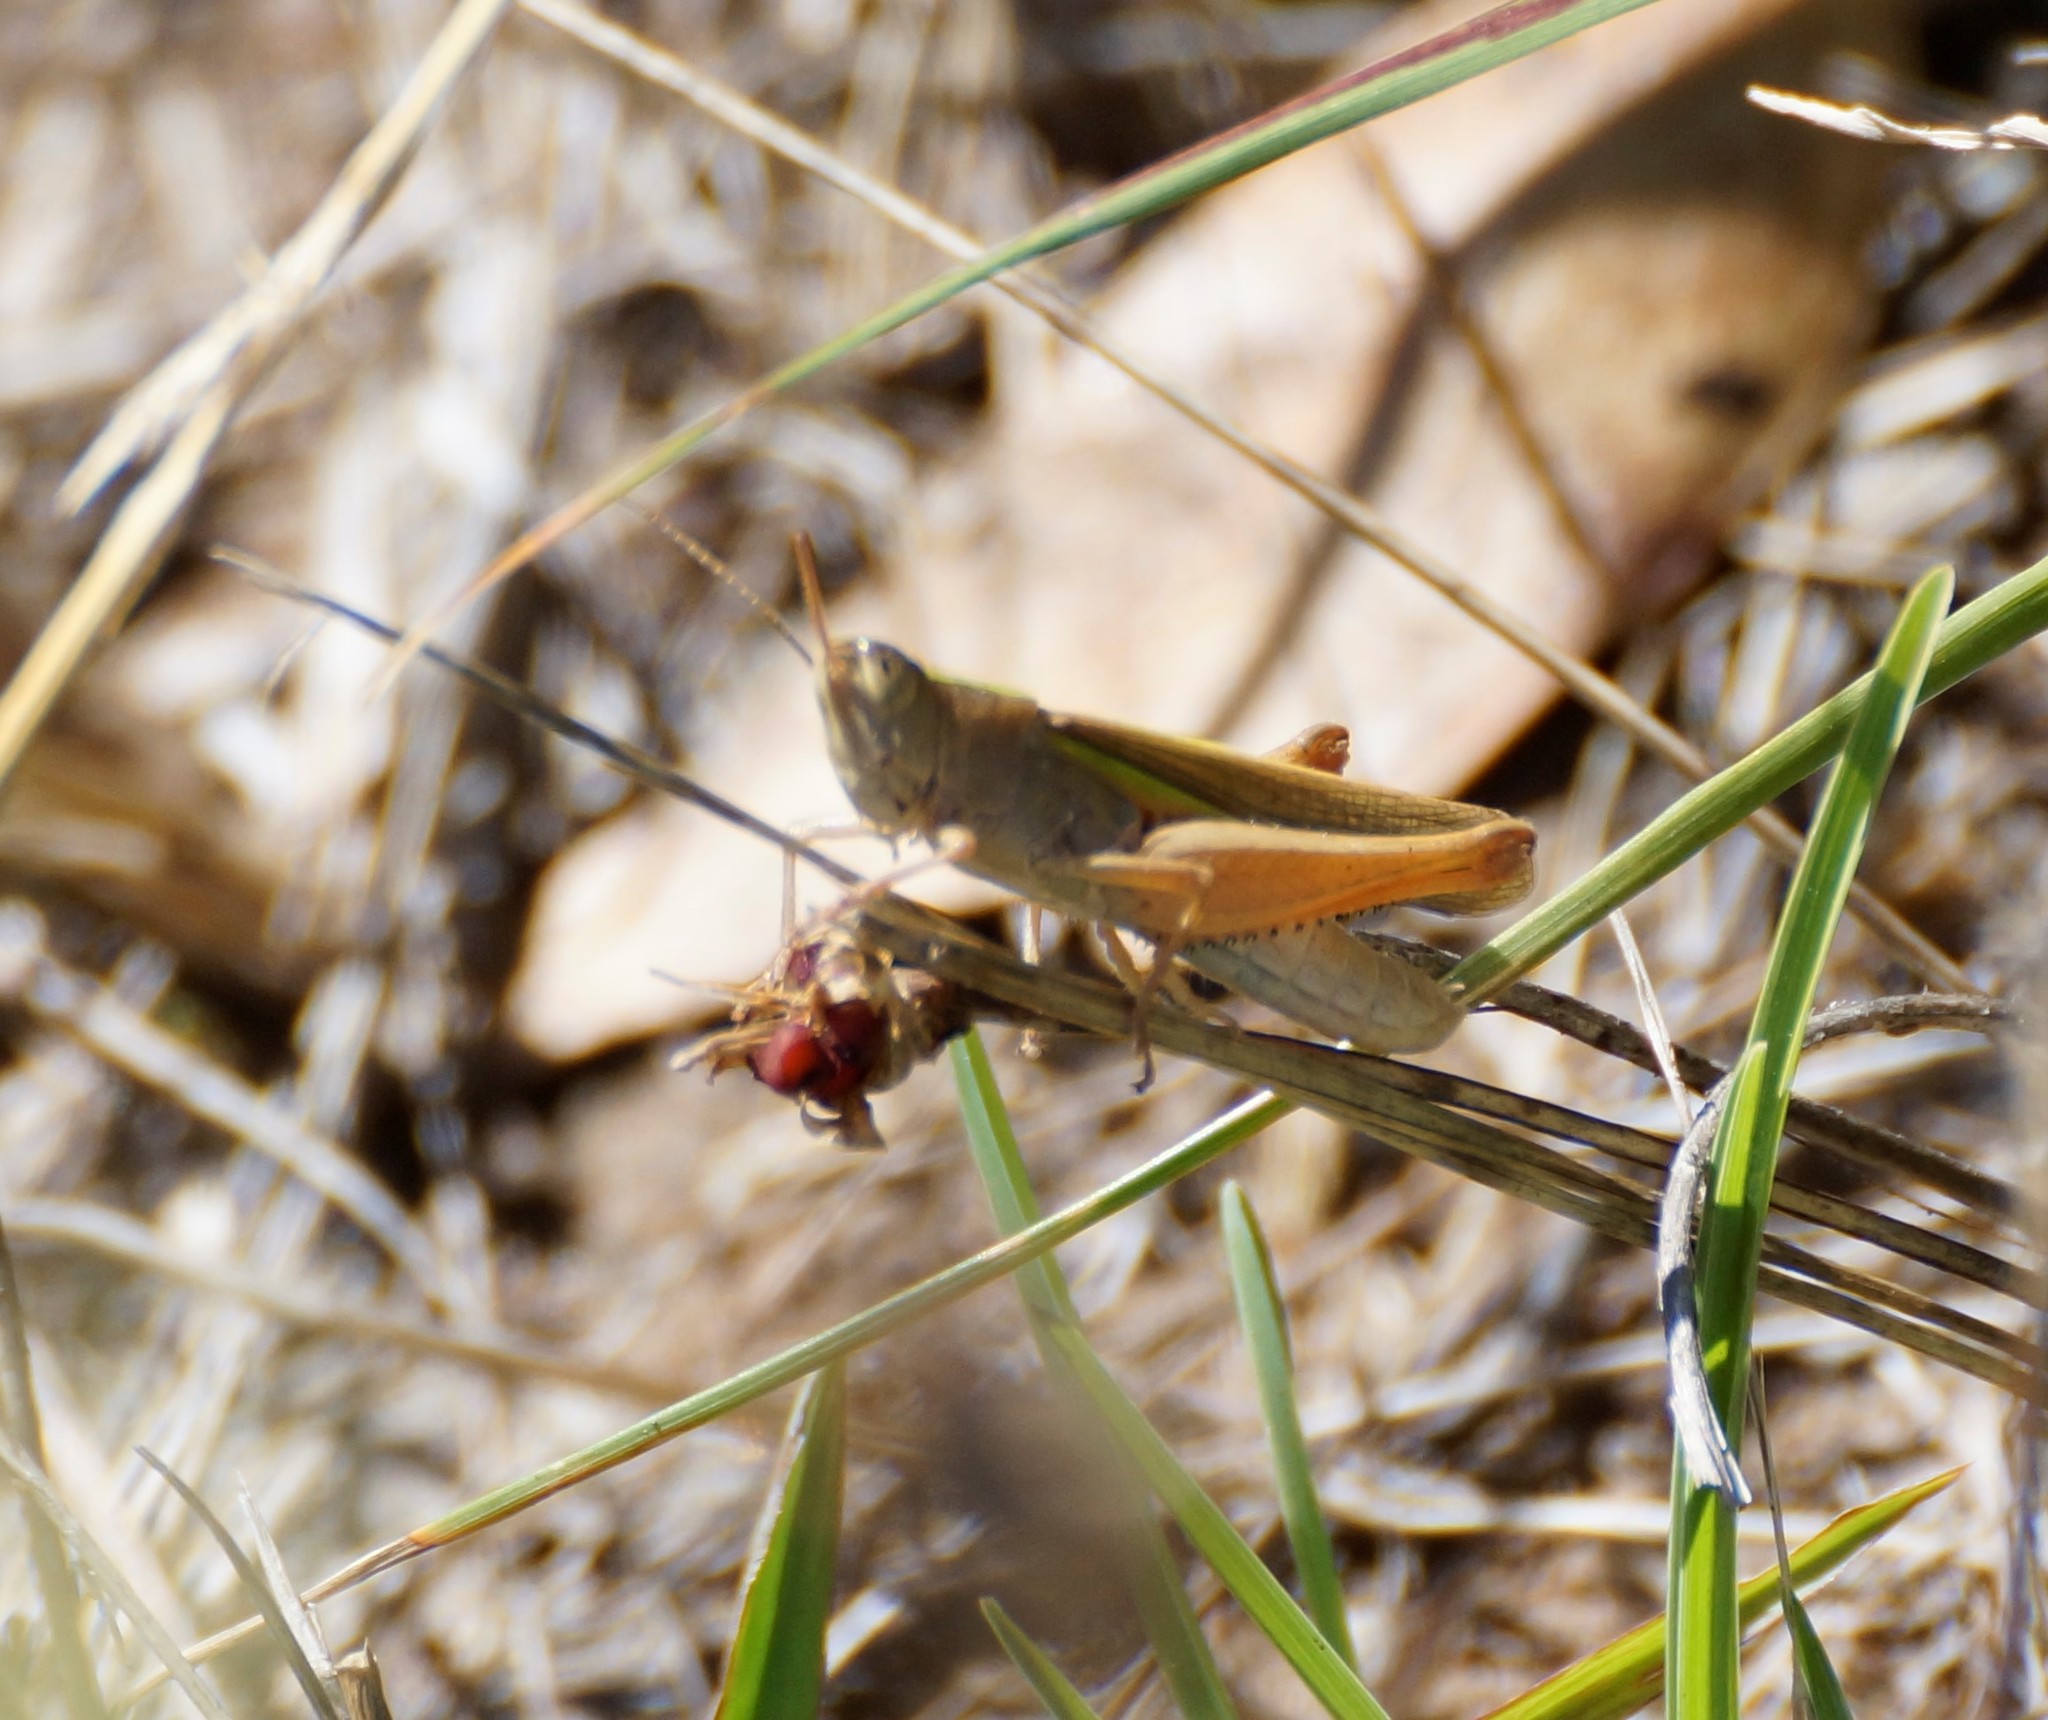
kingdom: Animalia
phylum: Arthropoda
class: Insecta
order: Orthoptera
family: Acrididae
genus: Schizobothrus
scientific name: Schizobothrus flavovittatus
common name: Disappearing grasshopper
